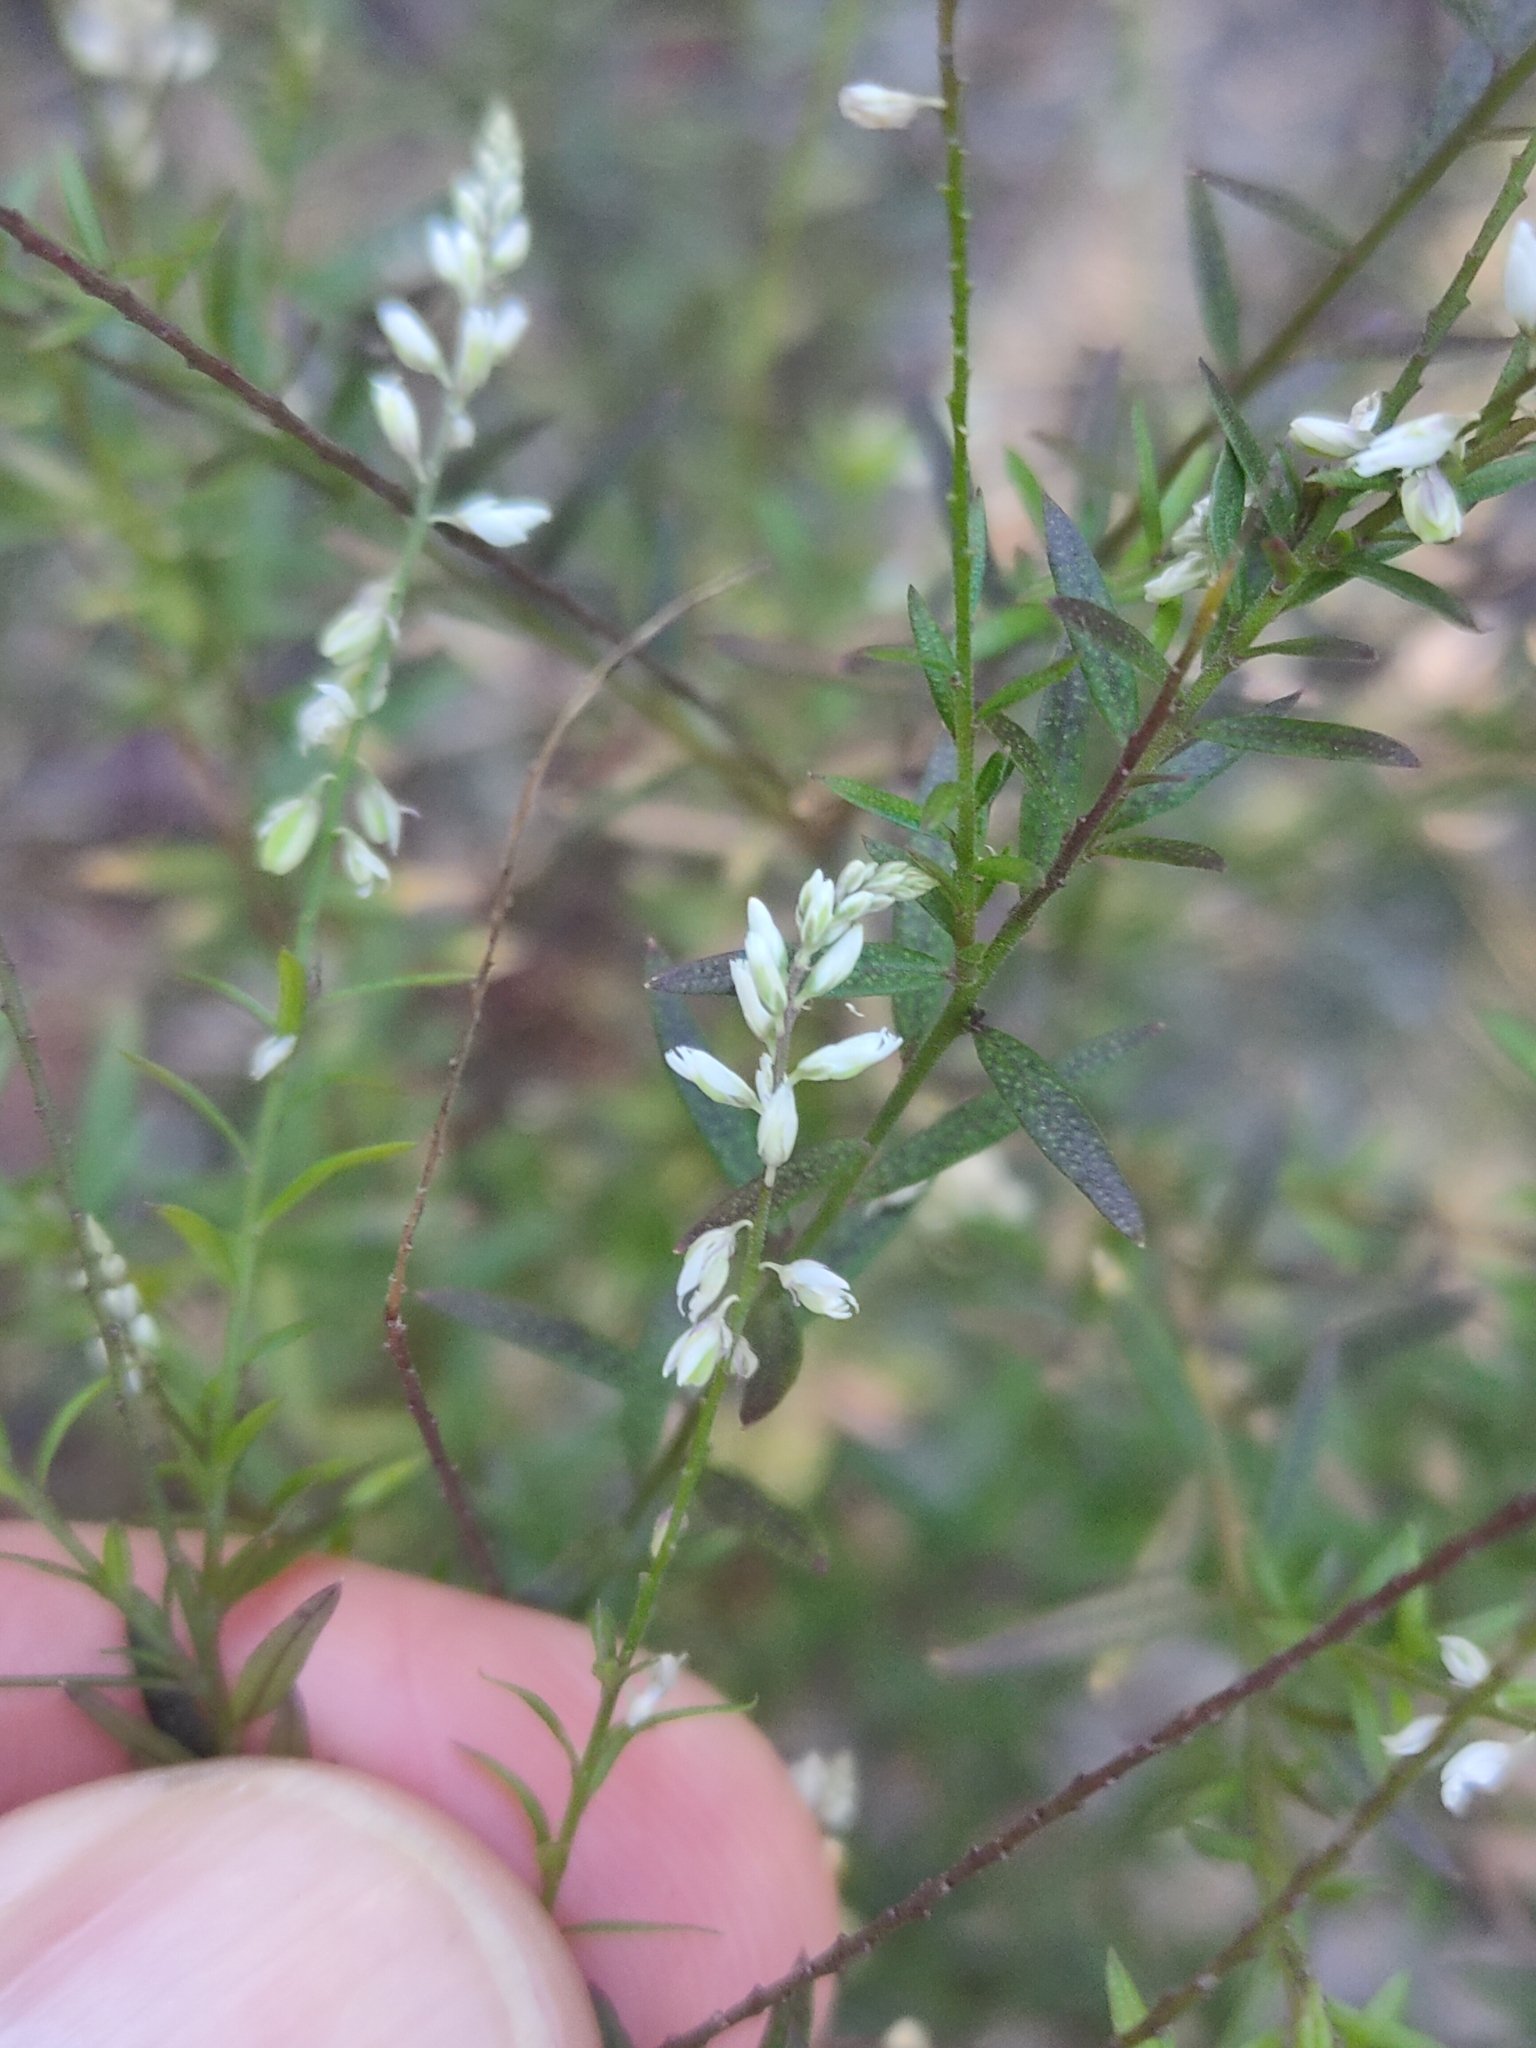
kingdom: Plantae
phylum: Tracheophyta
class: Magnoliopsida
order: Fabales
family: Polygalaceae
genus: Polygala
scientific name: Polygala paniculata
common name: Orosne
